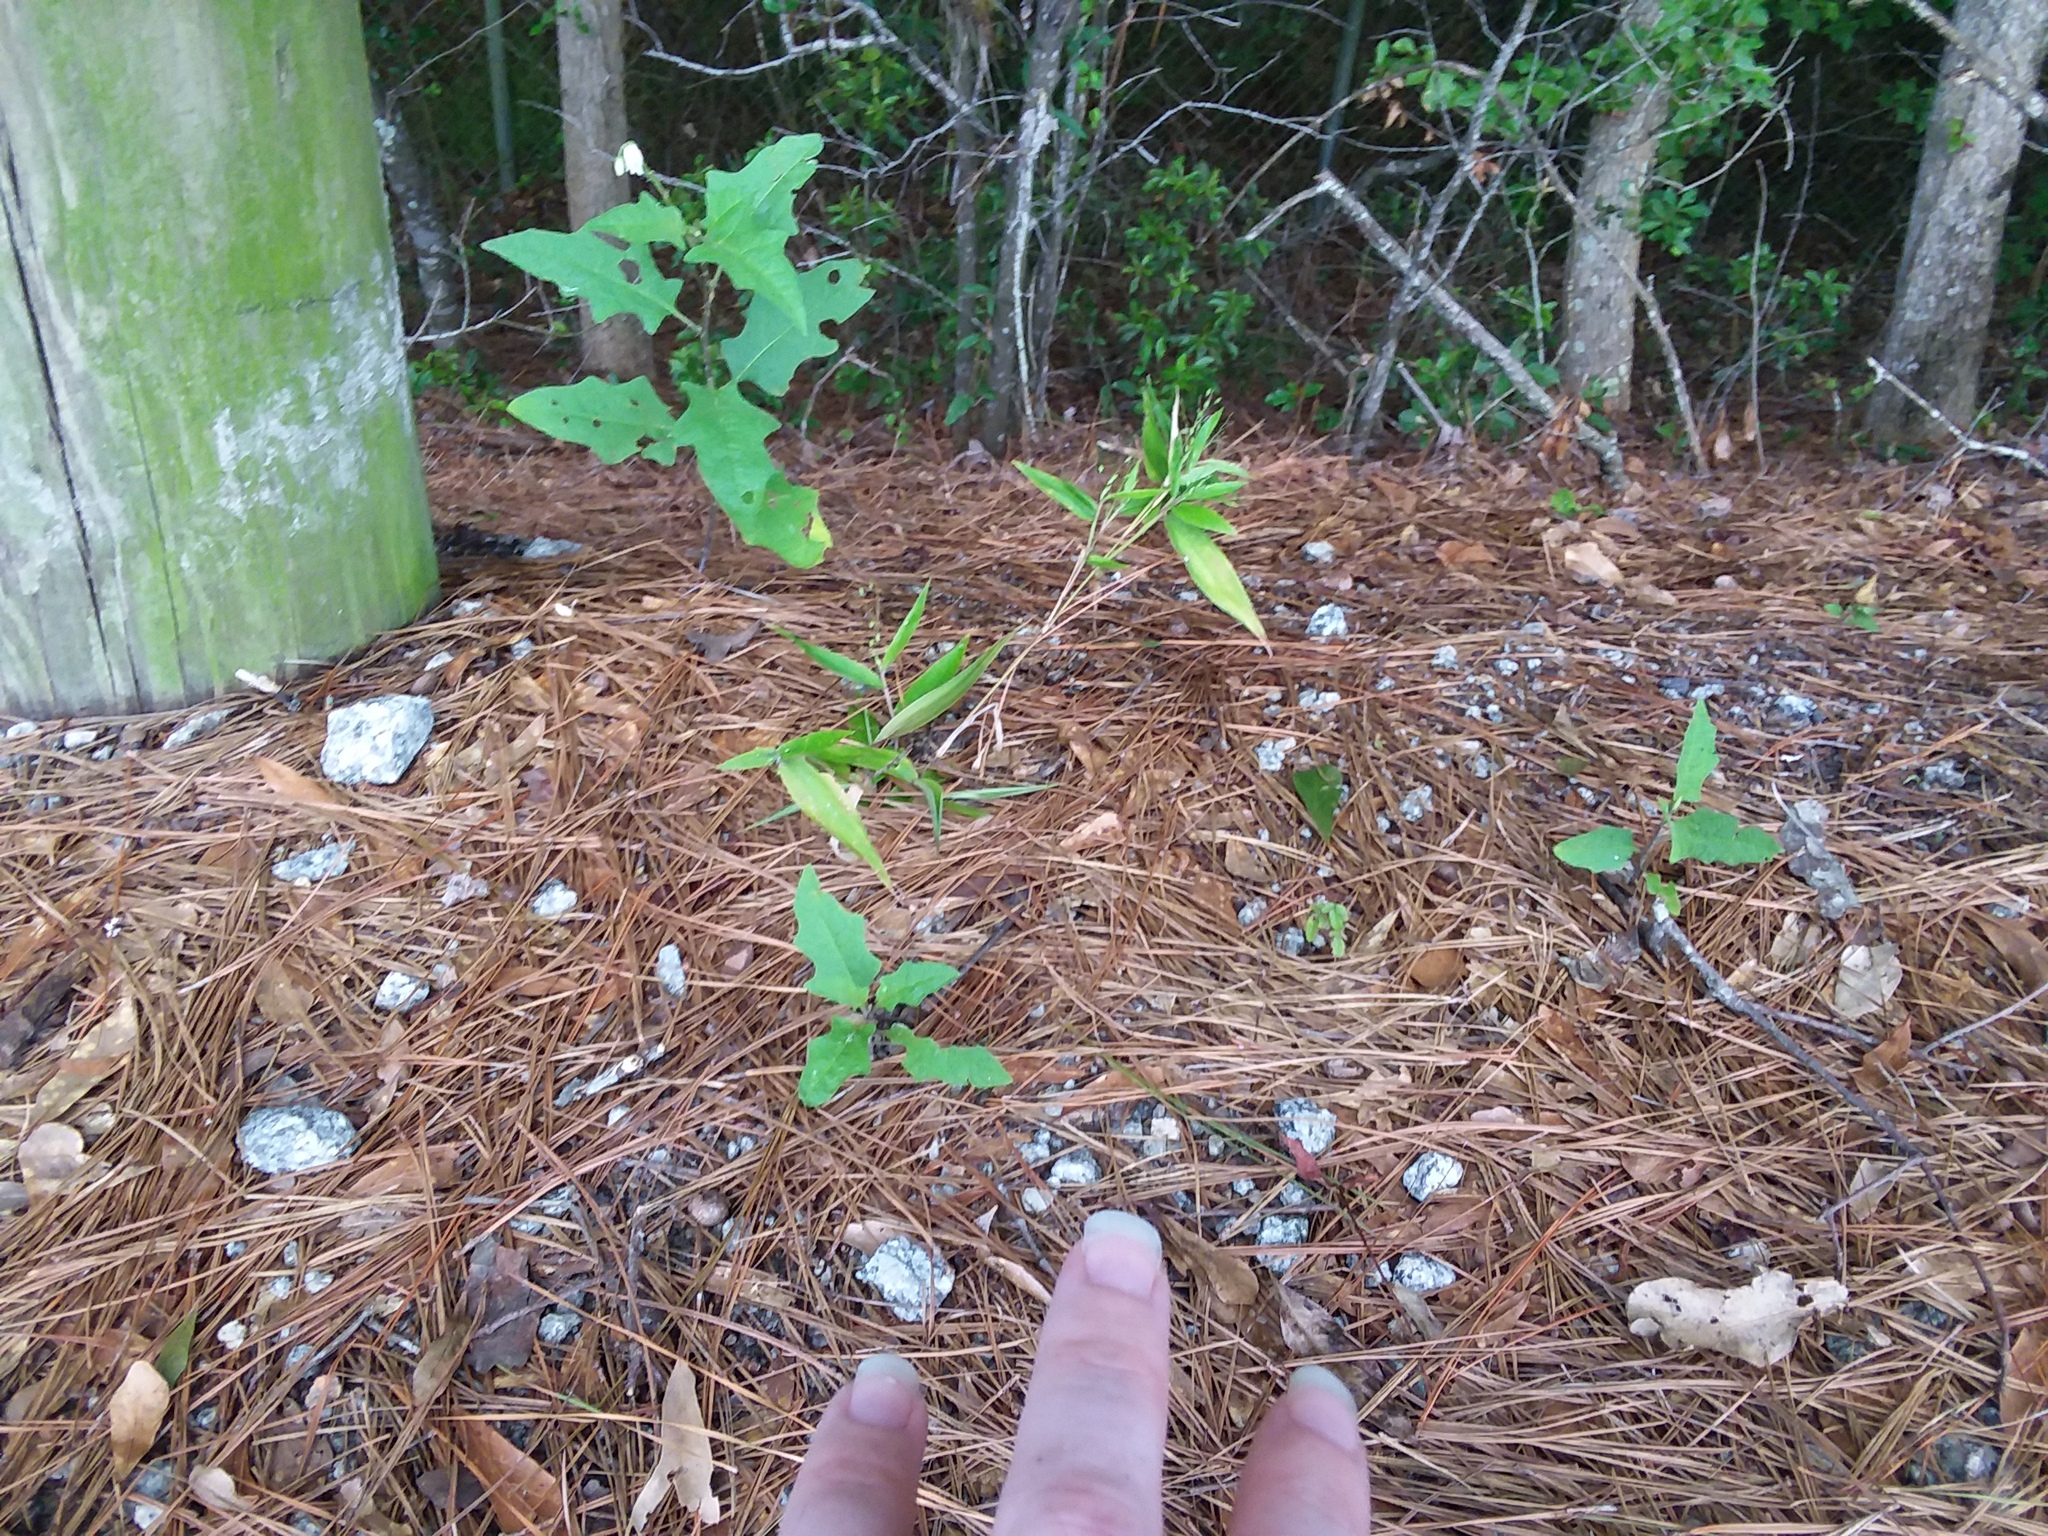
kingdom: Plantae
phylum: Tracheophyta
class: Magnoliopsida
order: Solanales
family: Solanaceae
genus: Solanum
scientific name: Solanum carolinense
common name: Horse-nettle
